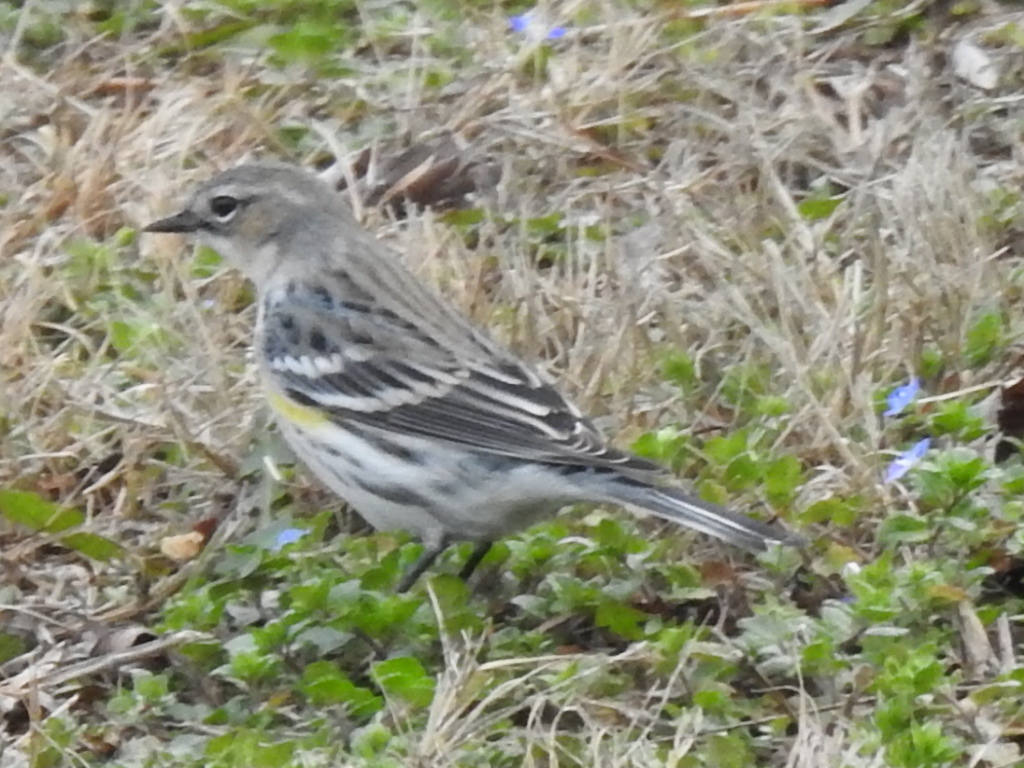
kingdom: Animalia
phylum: Chordata
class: Aves
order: Passeriformes
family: Parulidae
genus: Setophaga
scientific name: Setophaga coronata
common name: Myrtle warbler
